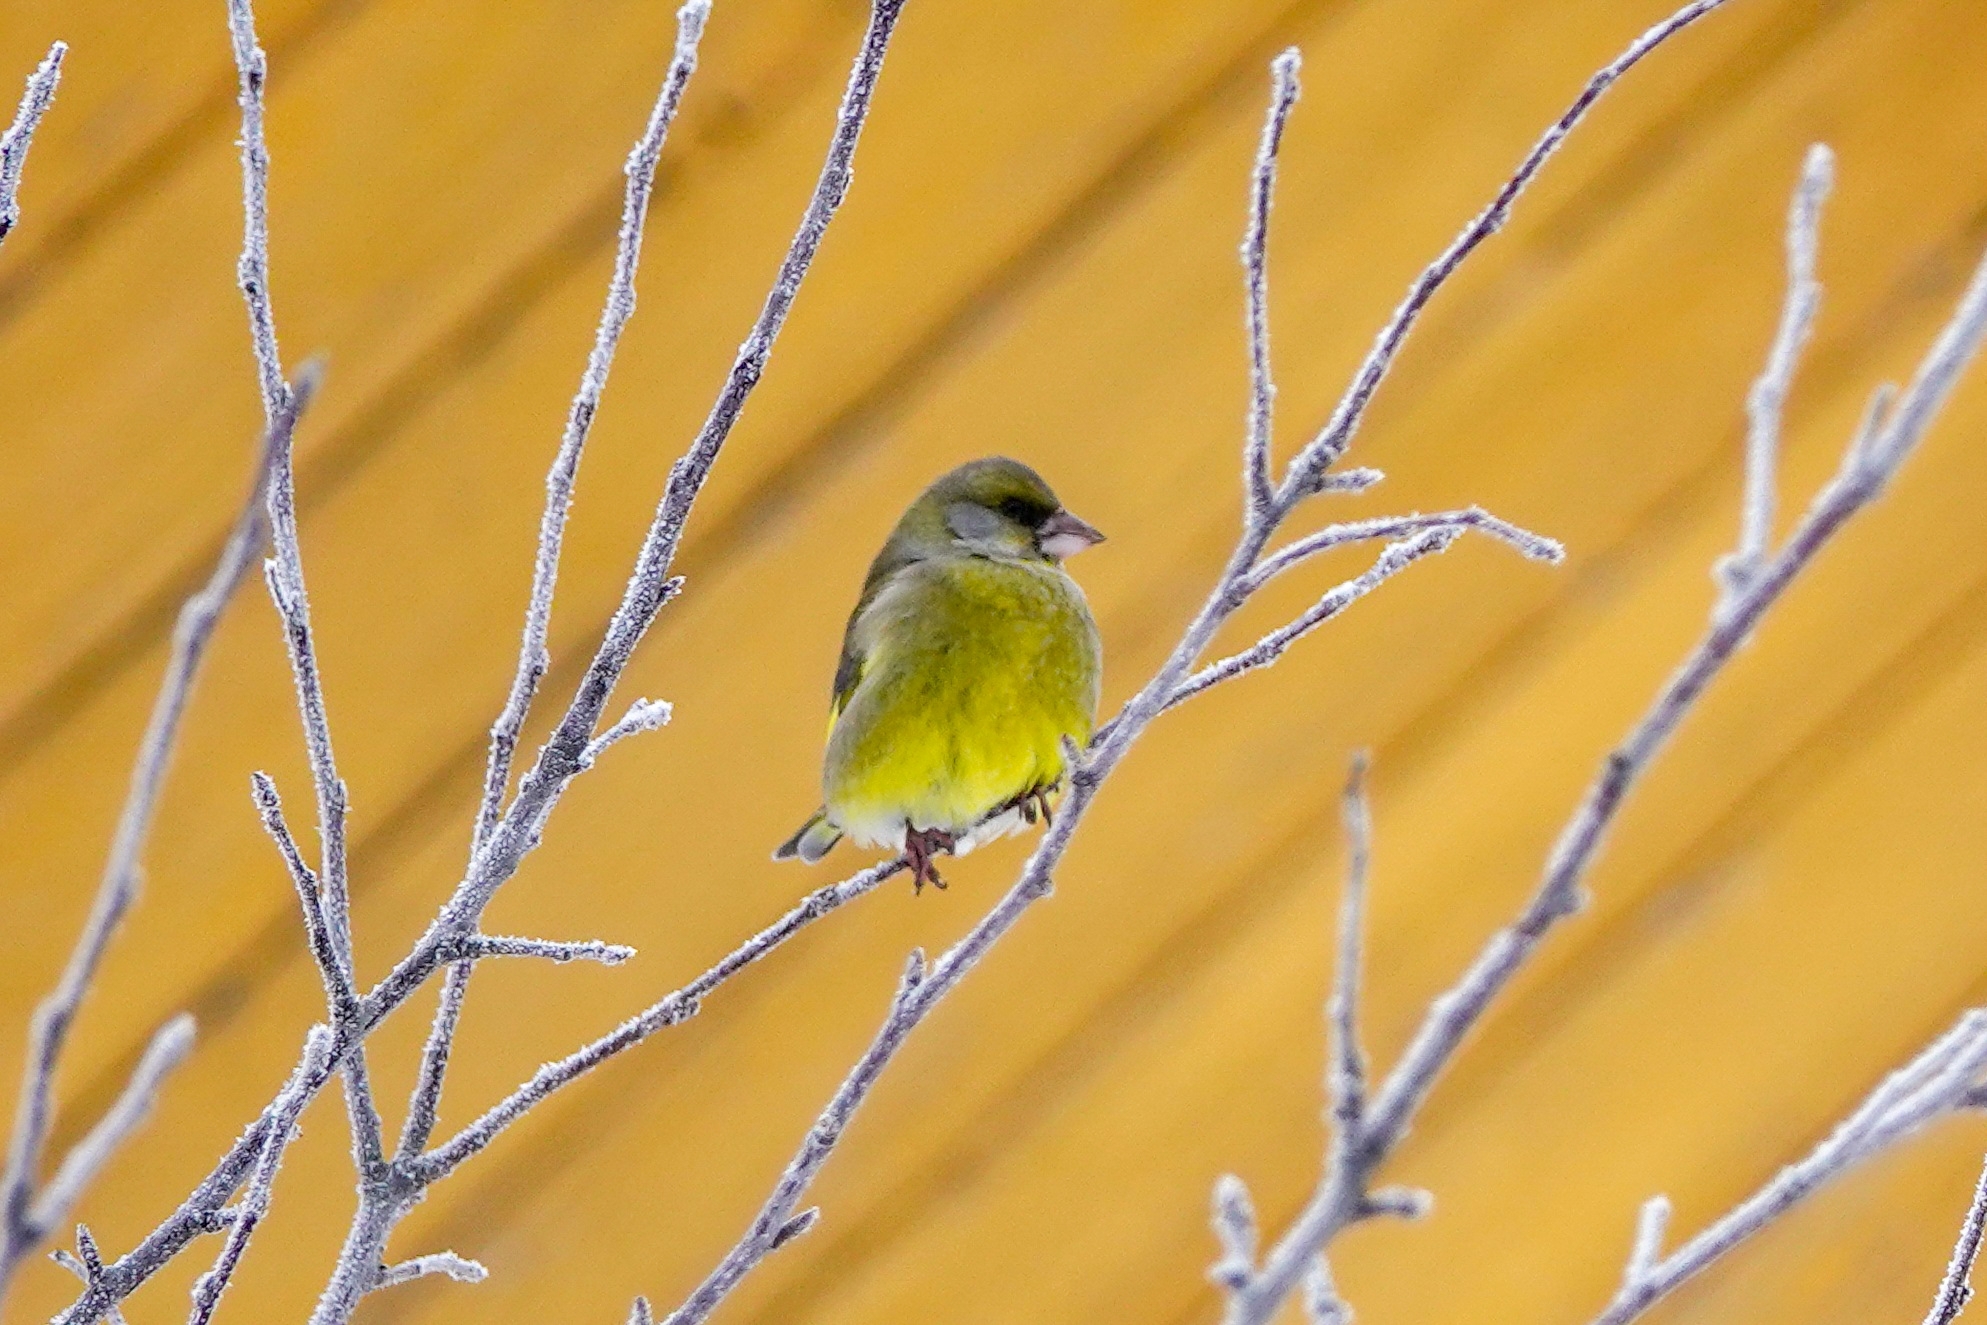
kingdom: Plantae
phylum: Tracheophyta
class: Liliopsida
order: Poales
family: Poaceae
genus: Chloris
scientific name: Chloris chloris
